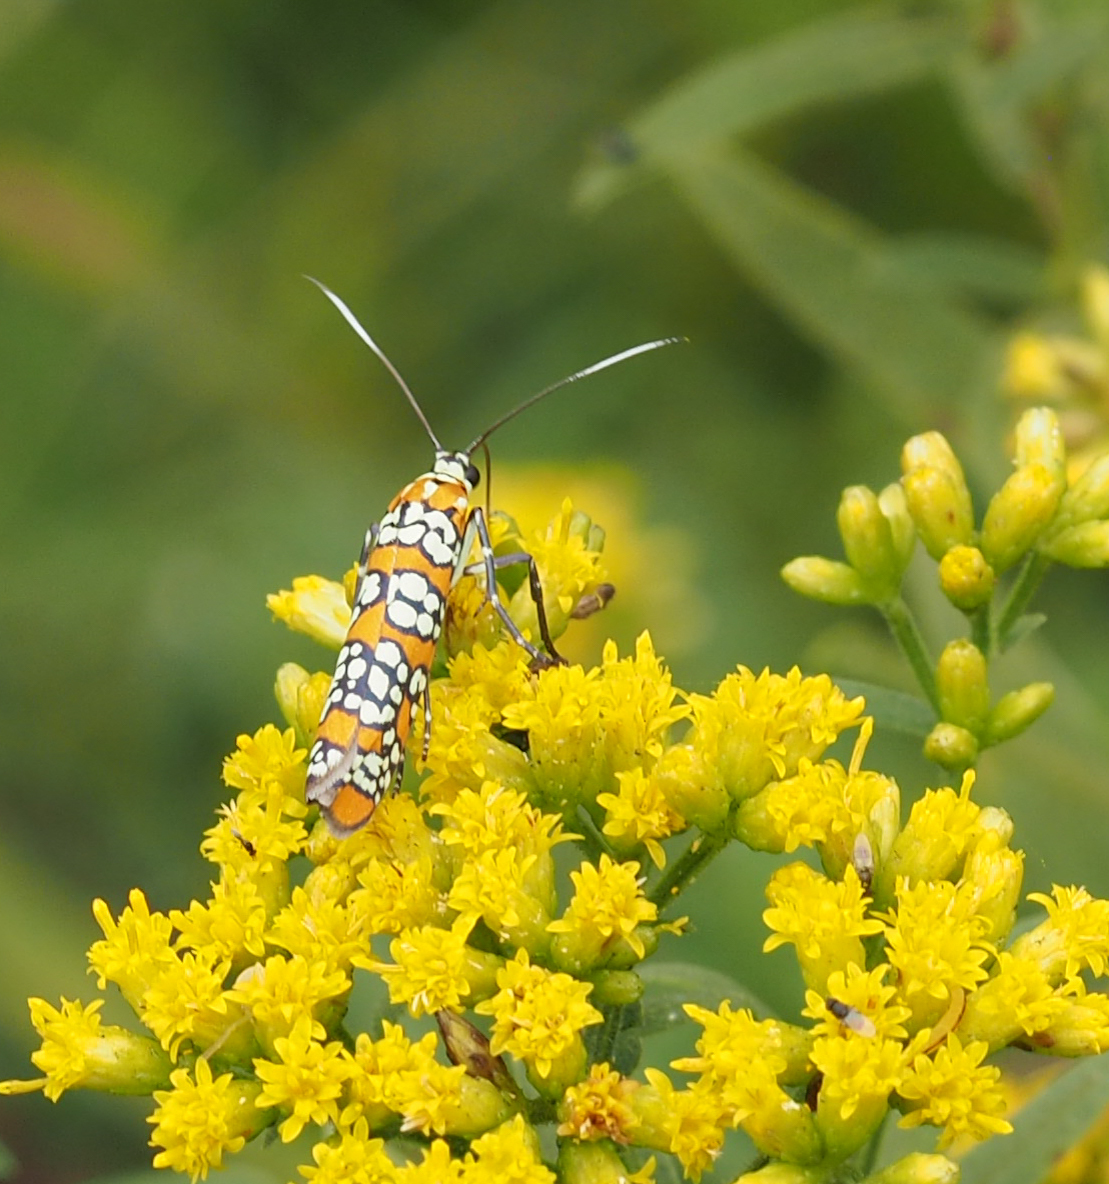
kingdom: Animalia
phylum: Arthropoda
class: Insecta
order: Lepidoptera
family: Attevidae
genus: Atteva
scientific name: Atteva punctella
